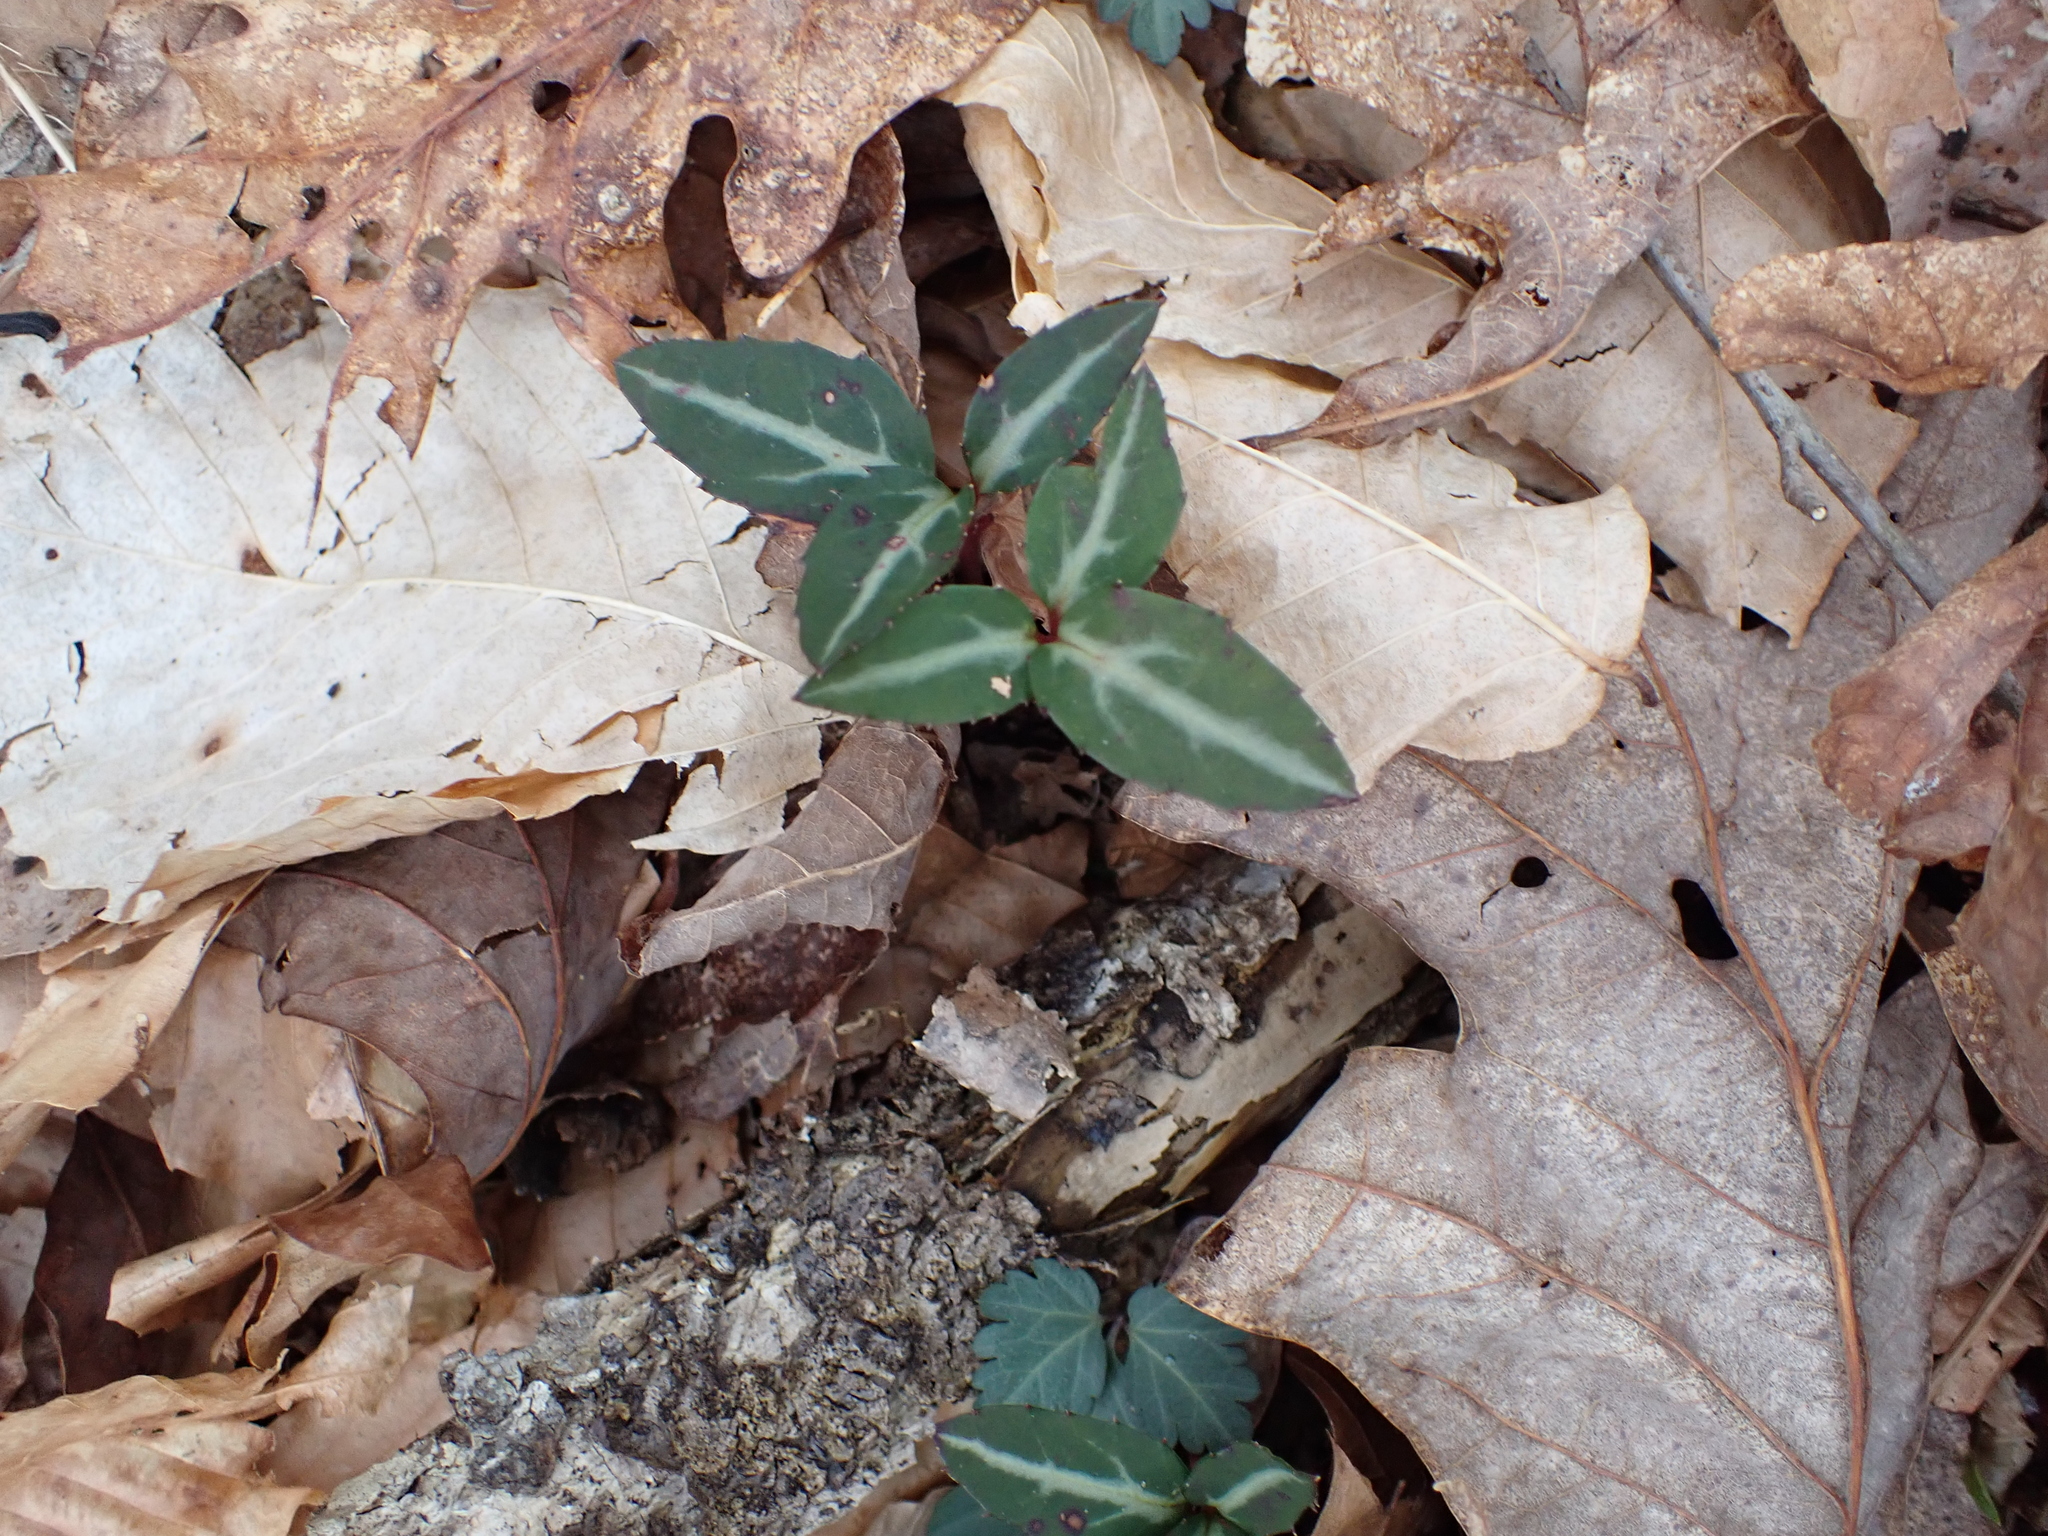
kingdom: Plantae
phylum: Tracheophyta
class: Magnoliopsida
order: Ericales
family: Ericaceae
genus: Chimaphila
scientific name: Chimaphila maculata
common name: Spotted pipsissewa
